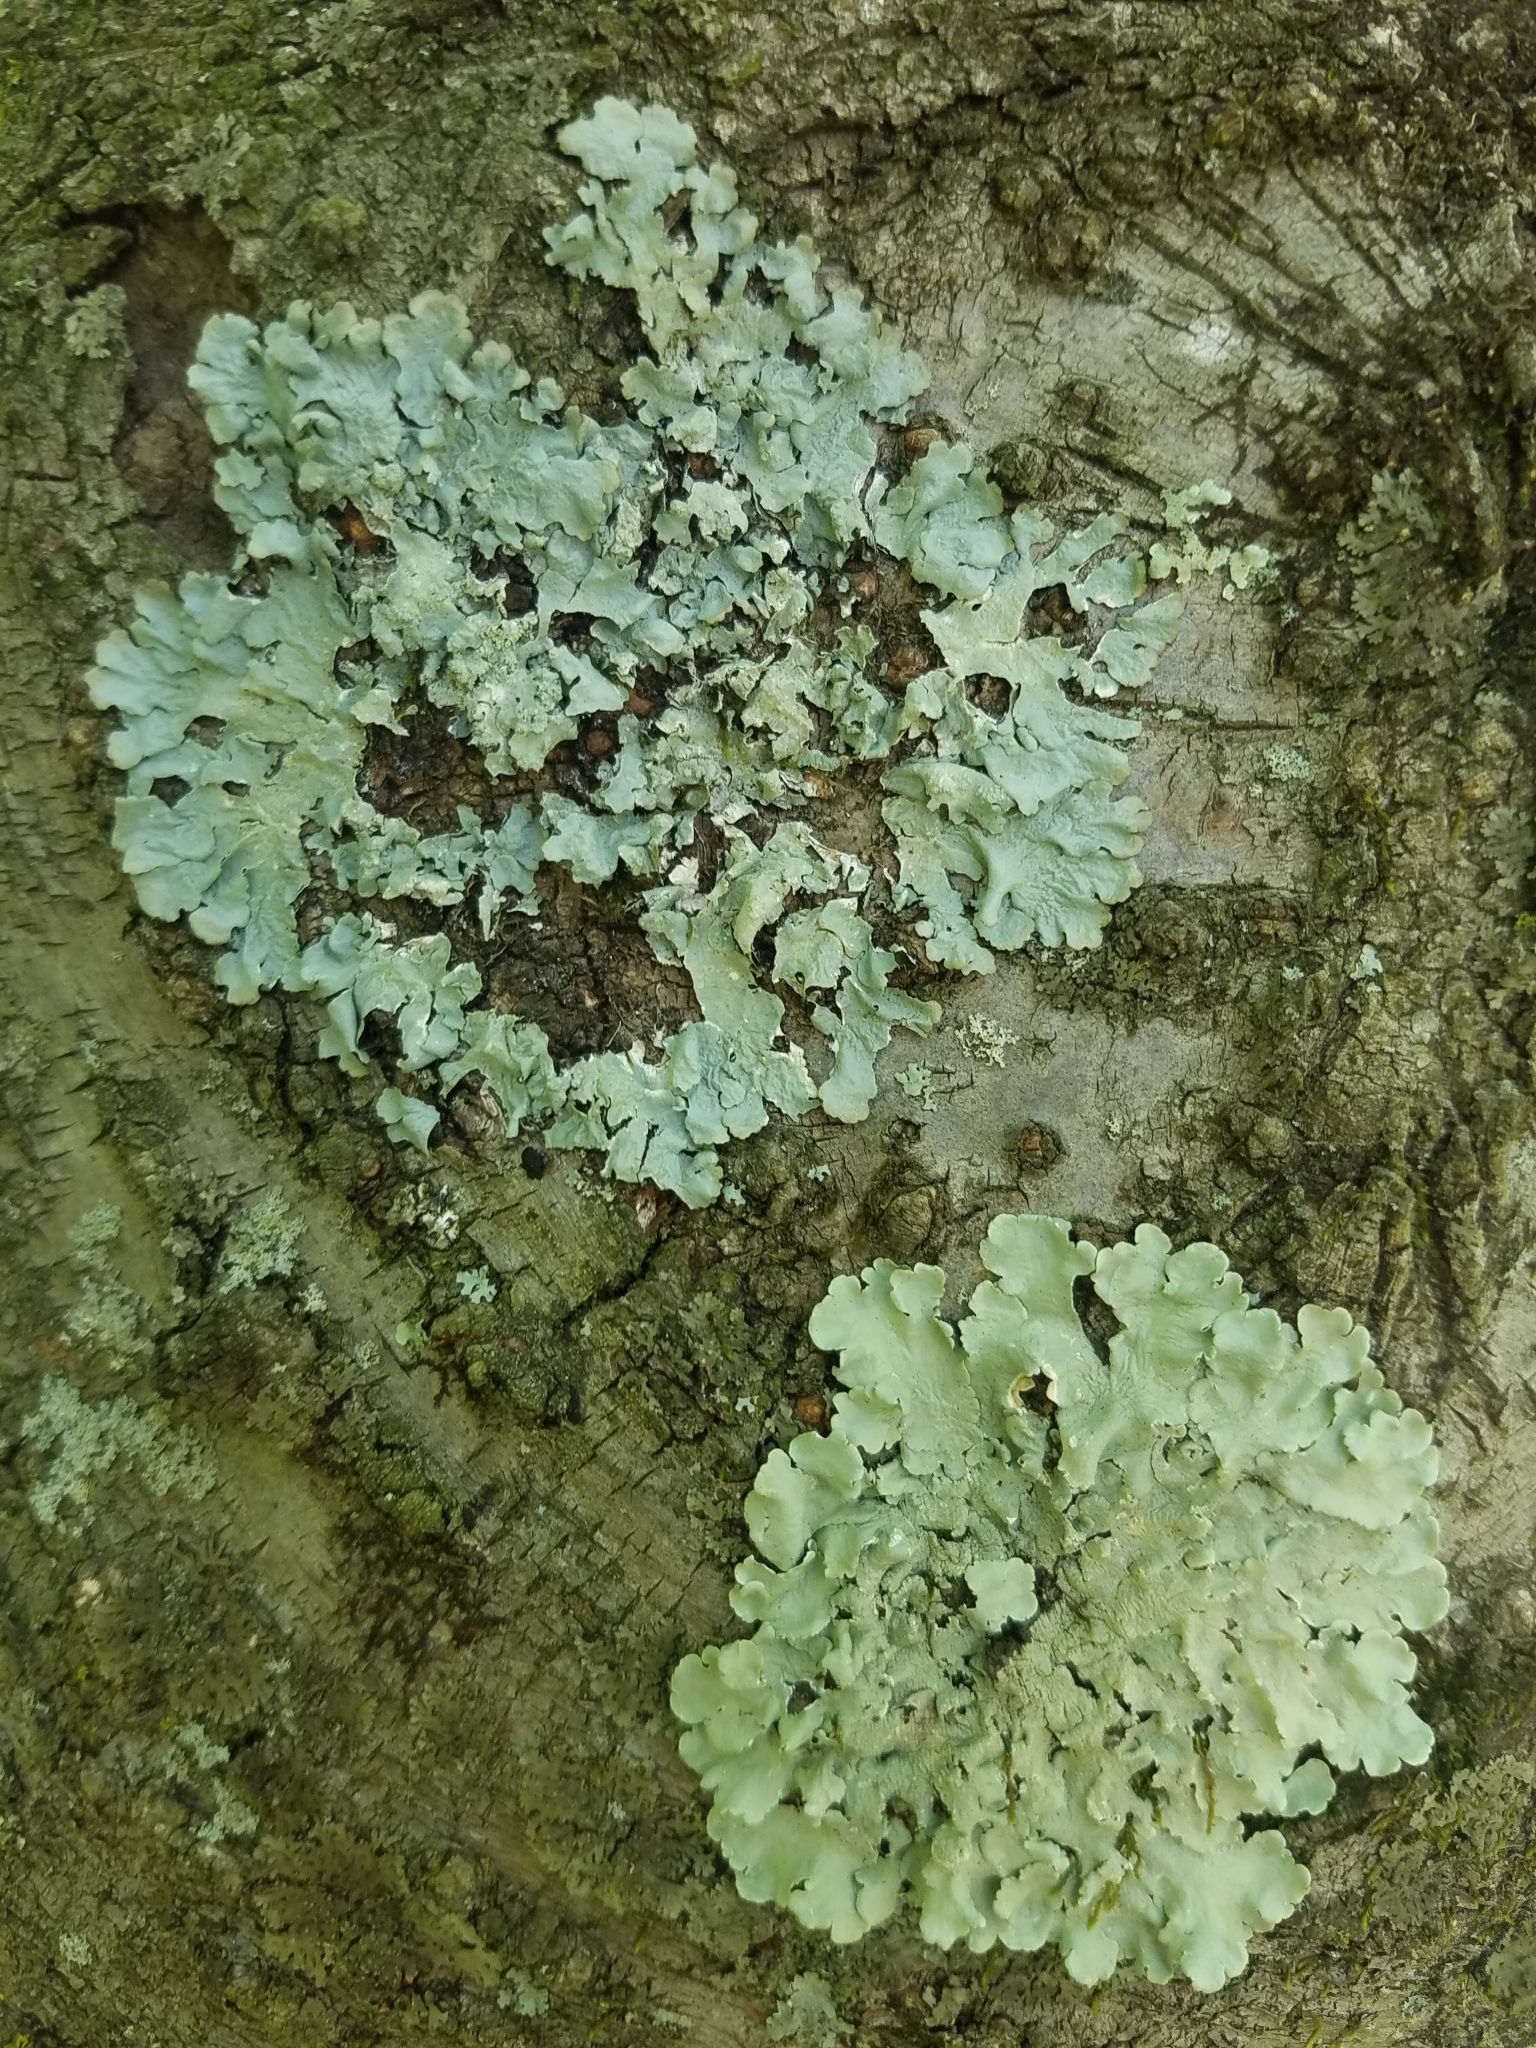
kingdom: Fungi
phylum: Ascomycota
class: Lecanoromycetes
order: Lecanorales
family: Parmeliaceae
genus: Flavoparmelia
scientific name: Flavoparmelia caperata
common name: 40-mile per hour lichen
